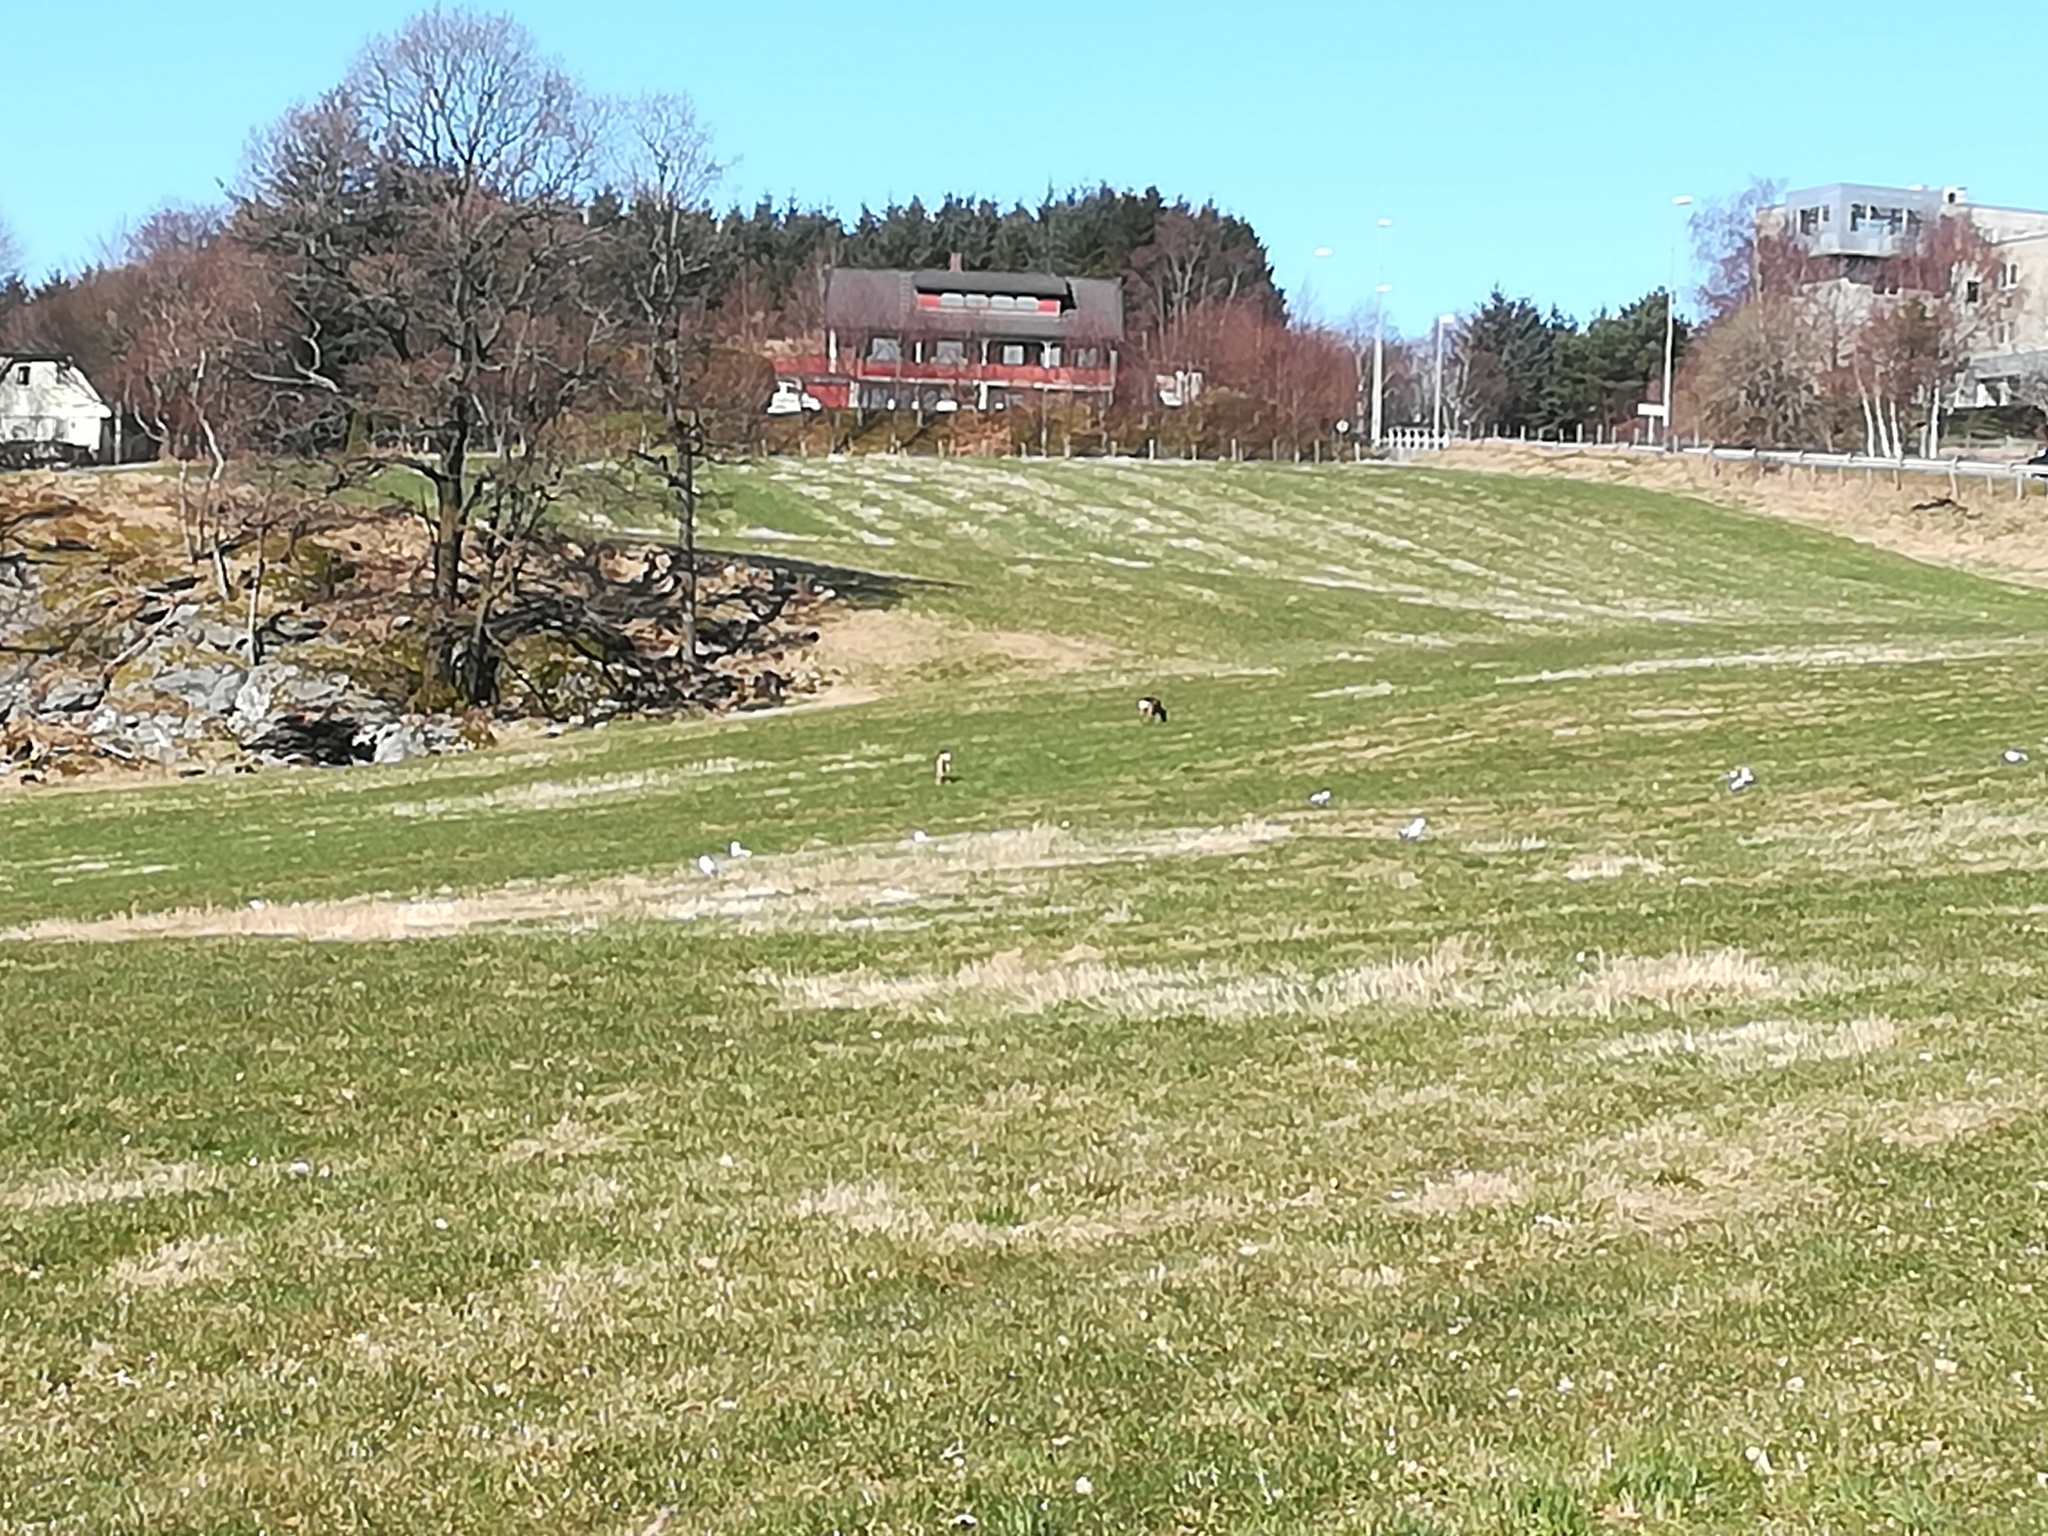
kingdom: Animalia
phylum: Chordata
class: Mammalia
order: Artiodactyla
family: Cervidae
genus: Capreolus
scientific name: Capreolus capreolus
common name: Western roe deer
